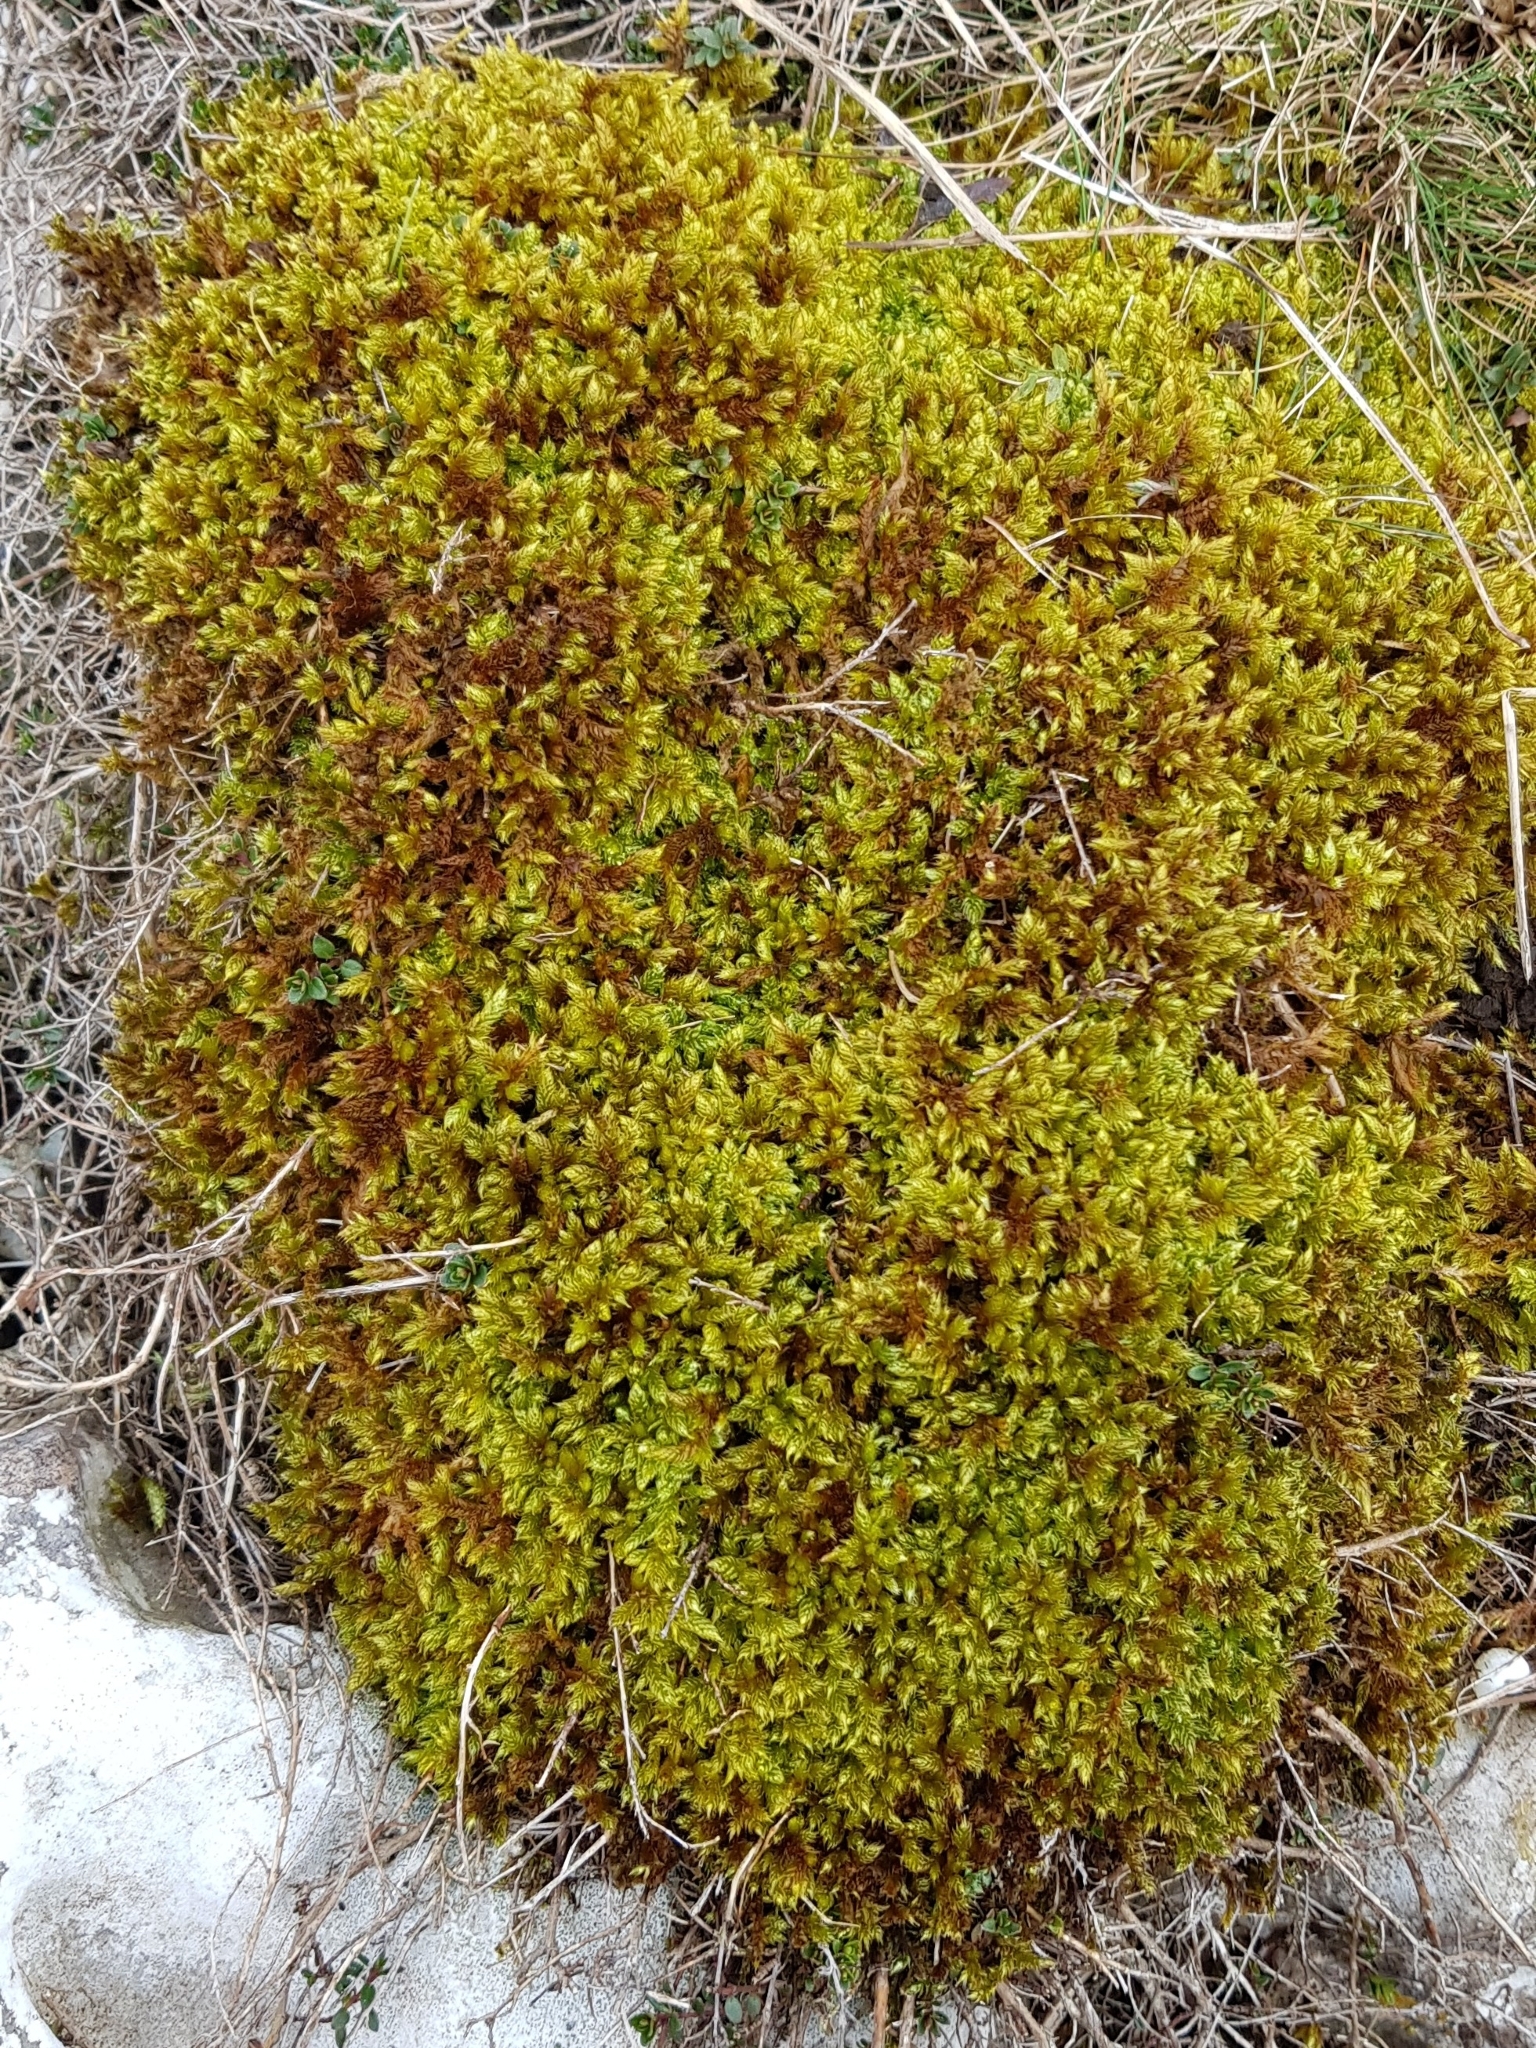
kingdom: Plantae
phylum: Bryophyta
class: Bryopsida
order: Hypnales
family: Hypnaceae
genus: Hypnum
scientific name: Hypnum cupressiforme
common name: Cypress-leaved plait-moss
